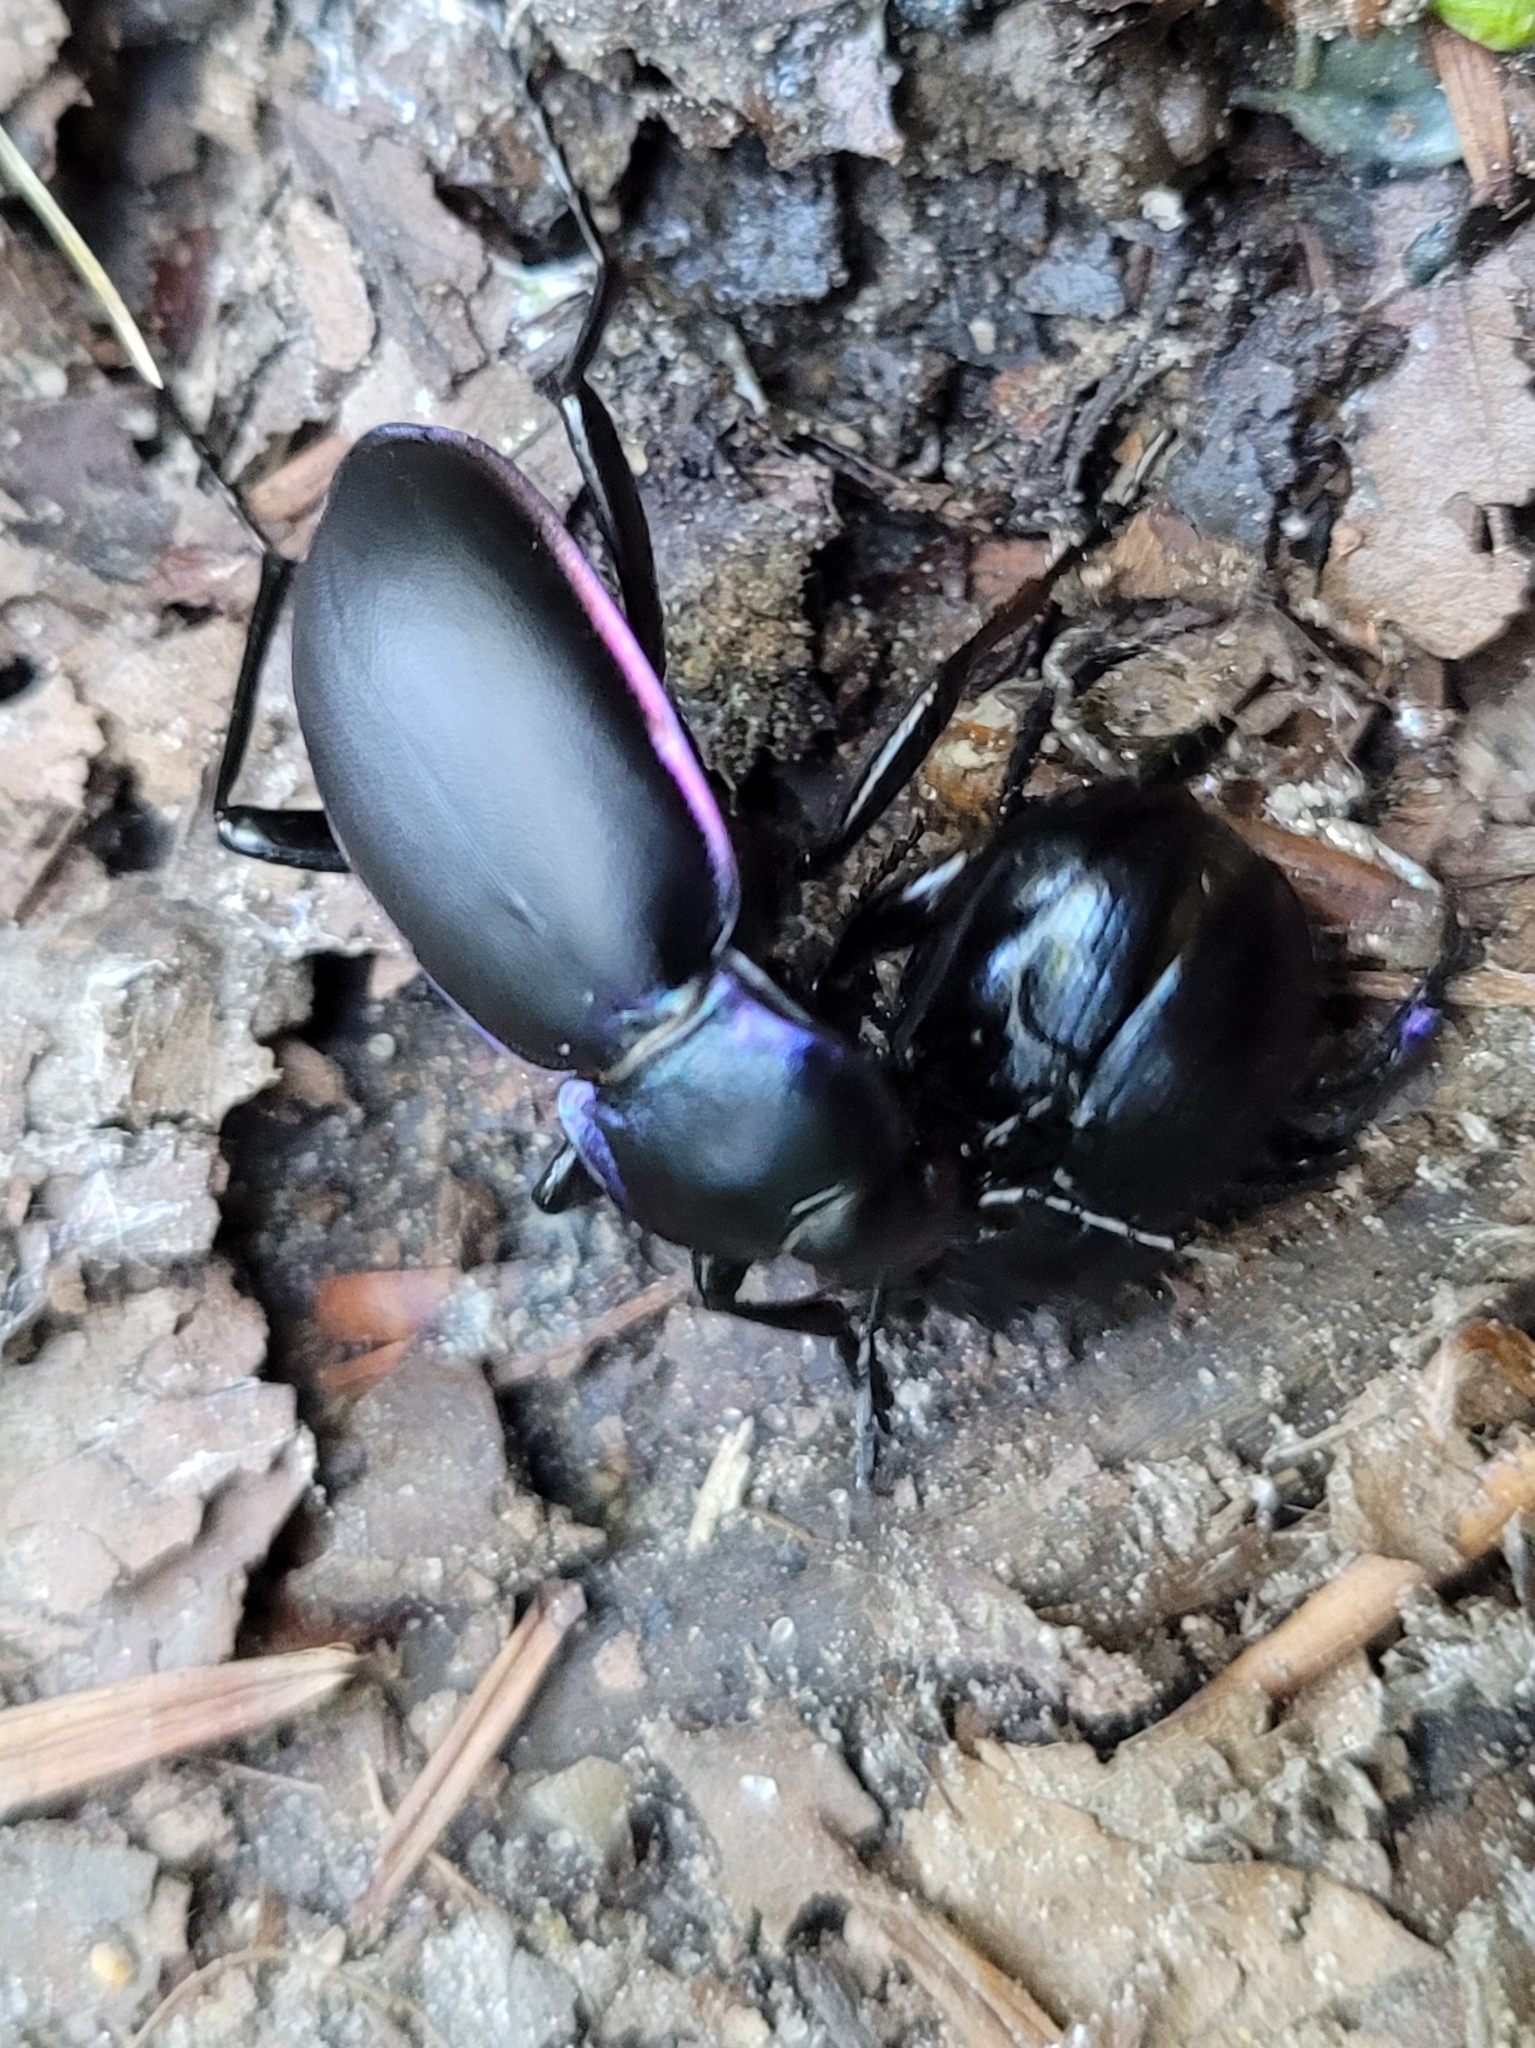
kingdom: Animalia
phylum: Arthropoda
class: Insecta
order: Coleoptera
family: Carabidae
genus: Carabus
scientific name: Carabus violaceus
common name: Violet ground beetle
